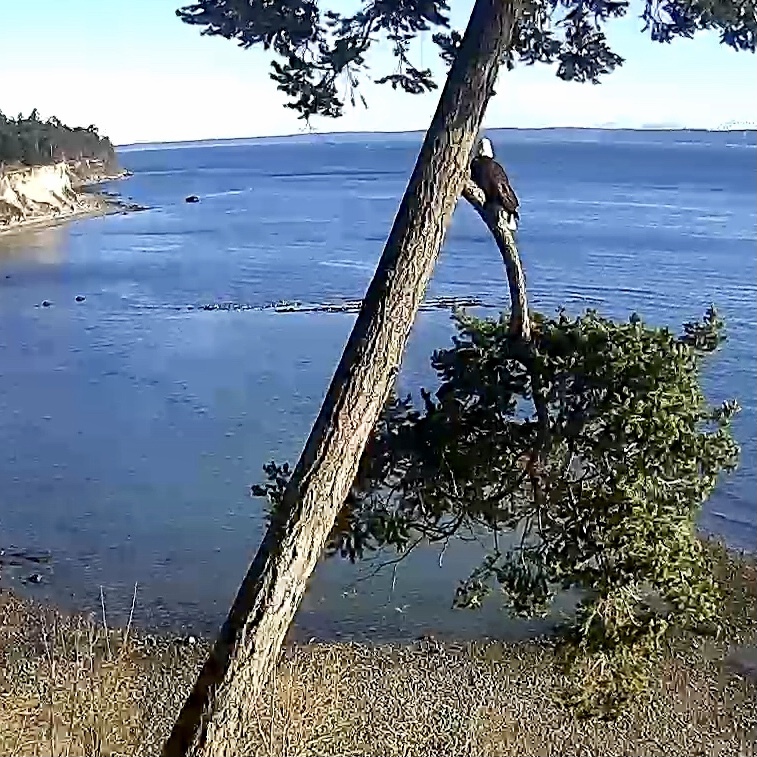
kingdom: Animalia
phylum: Chordata
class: Aves
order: Accipitriformes
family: Accipitridae
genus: Haliaeetus
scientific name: Haliaeetus leucocephalus
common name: Bald eagle
